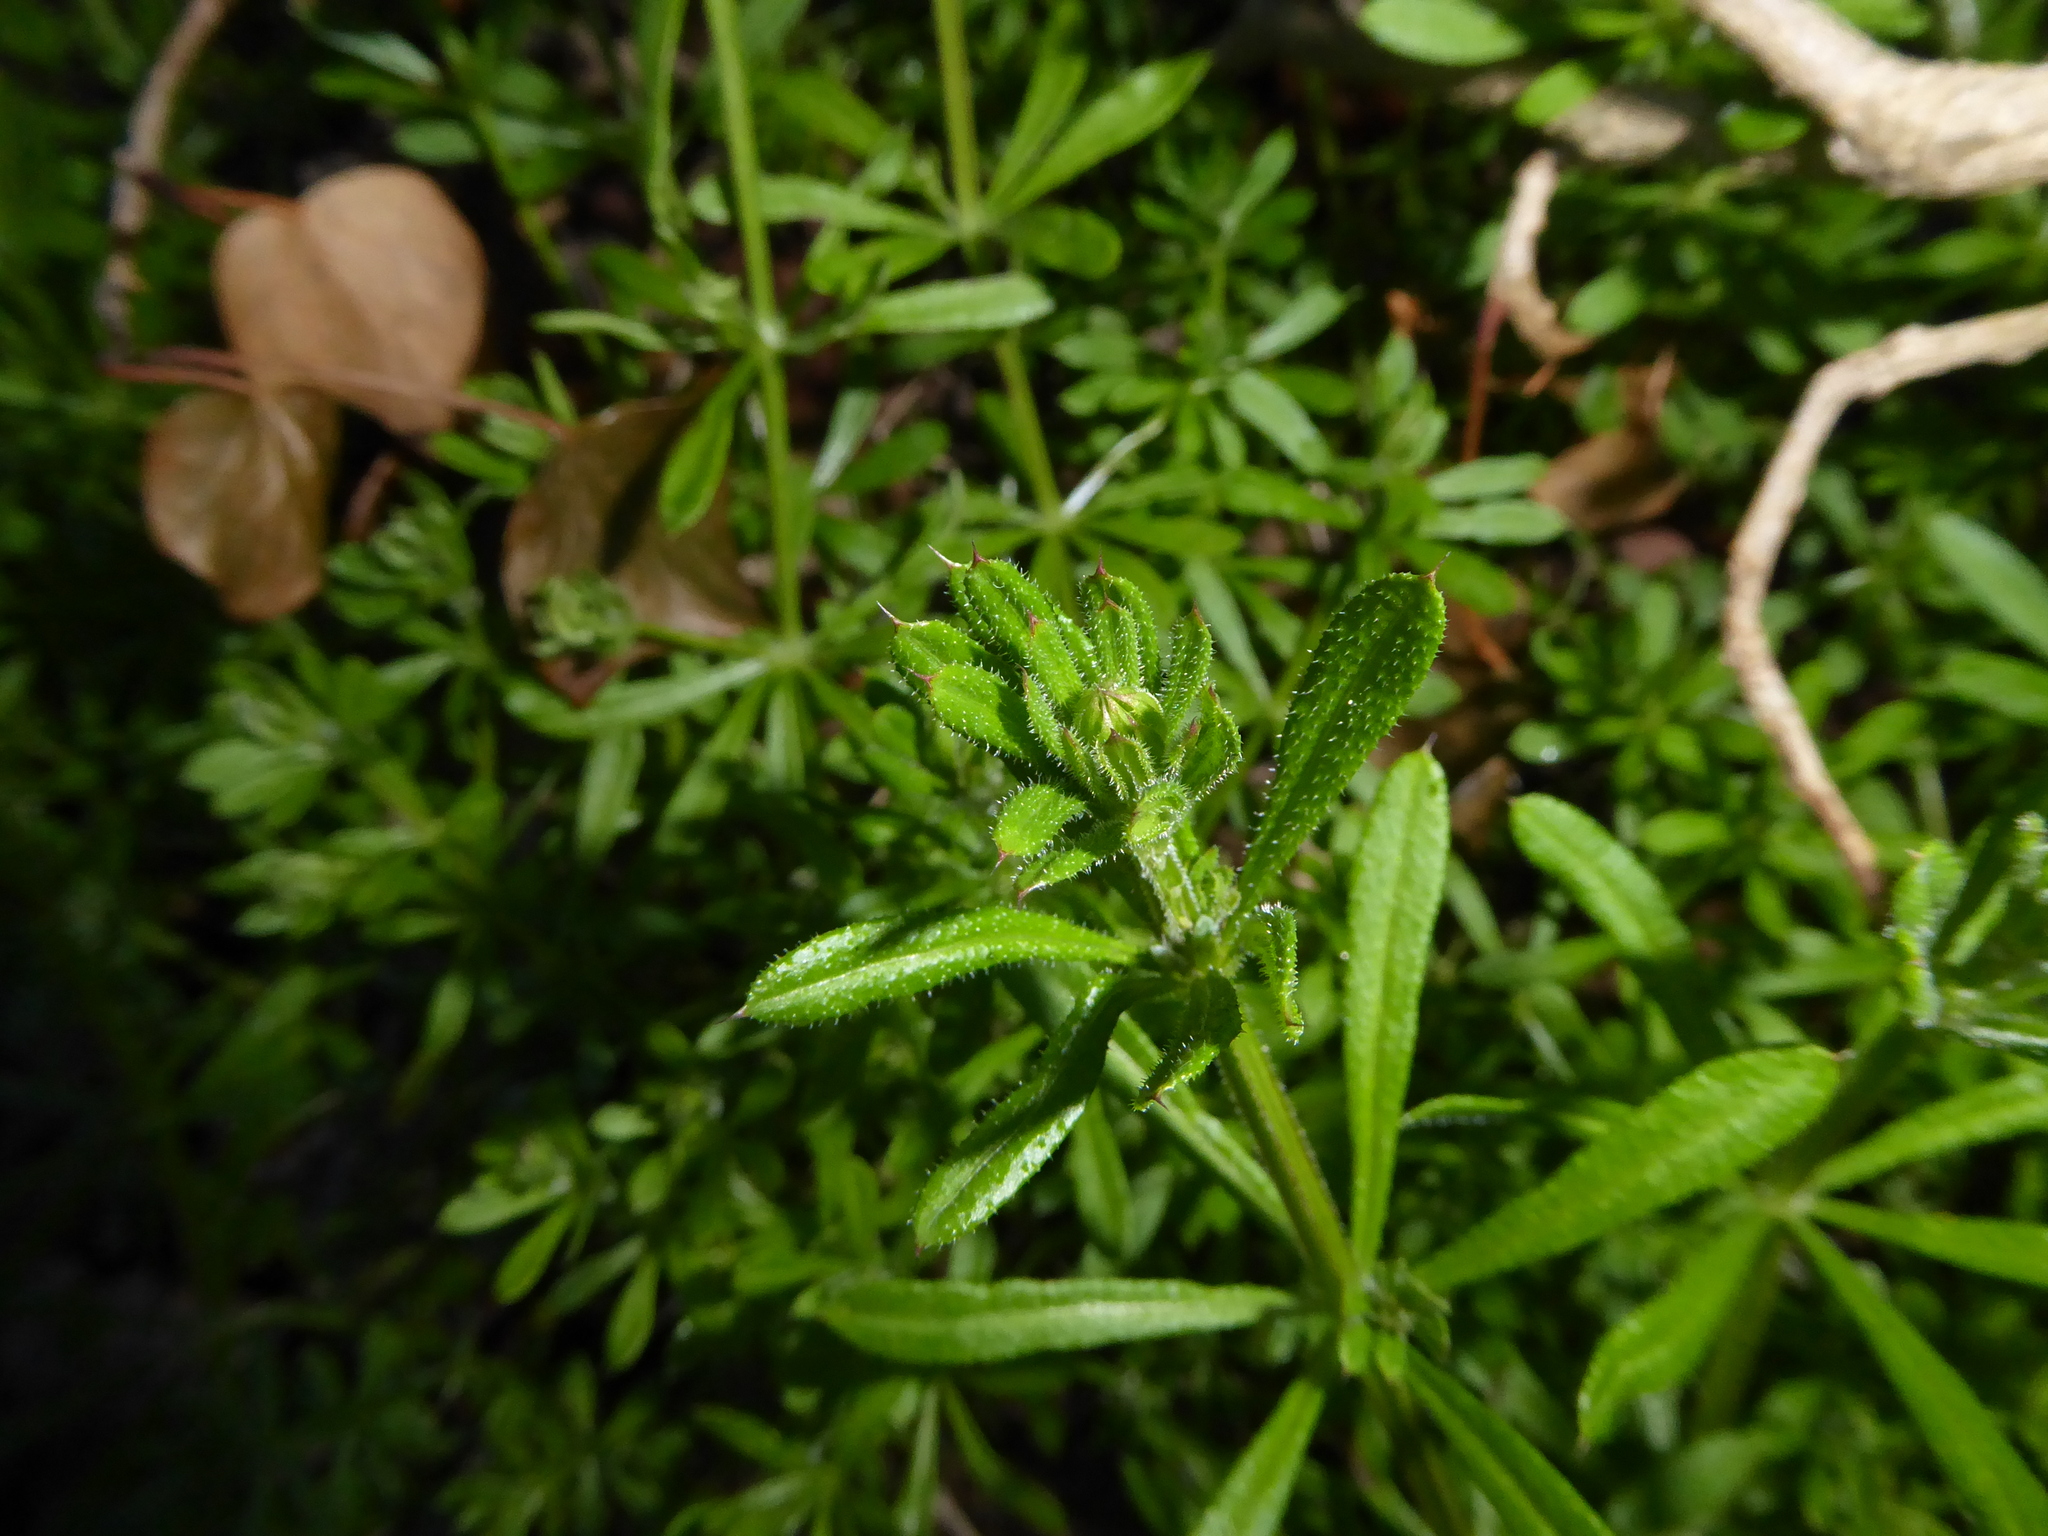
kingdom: Plantae
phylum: Tracheophyta
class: Magnoliopsida
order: Gentianales
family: Rubiaceae
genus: Galium
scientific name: Galium aparine
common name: Cleavers
